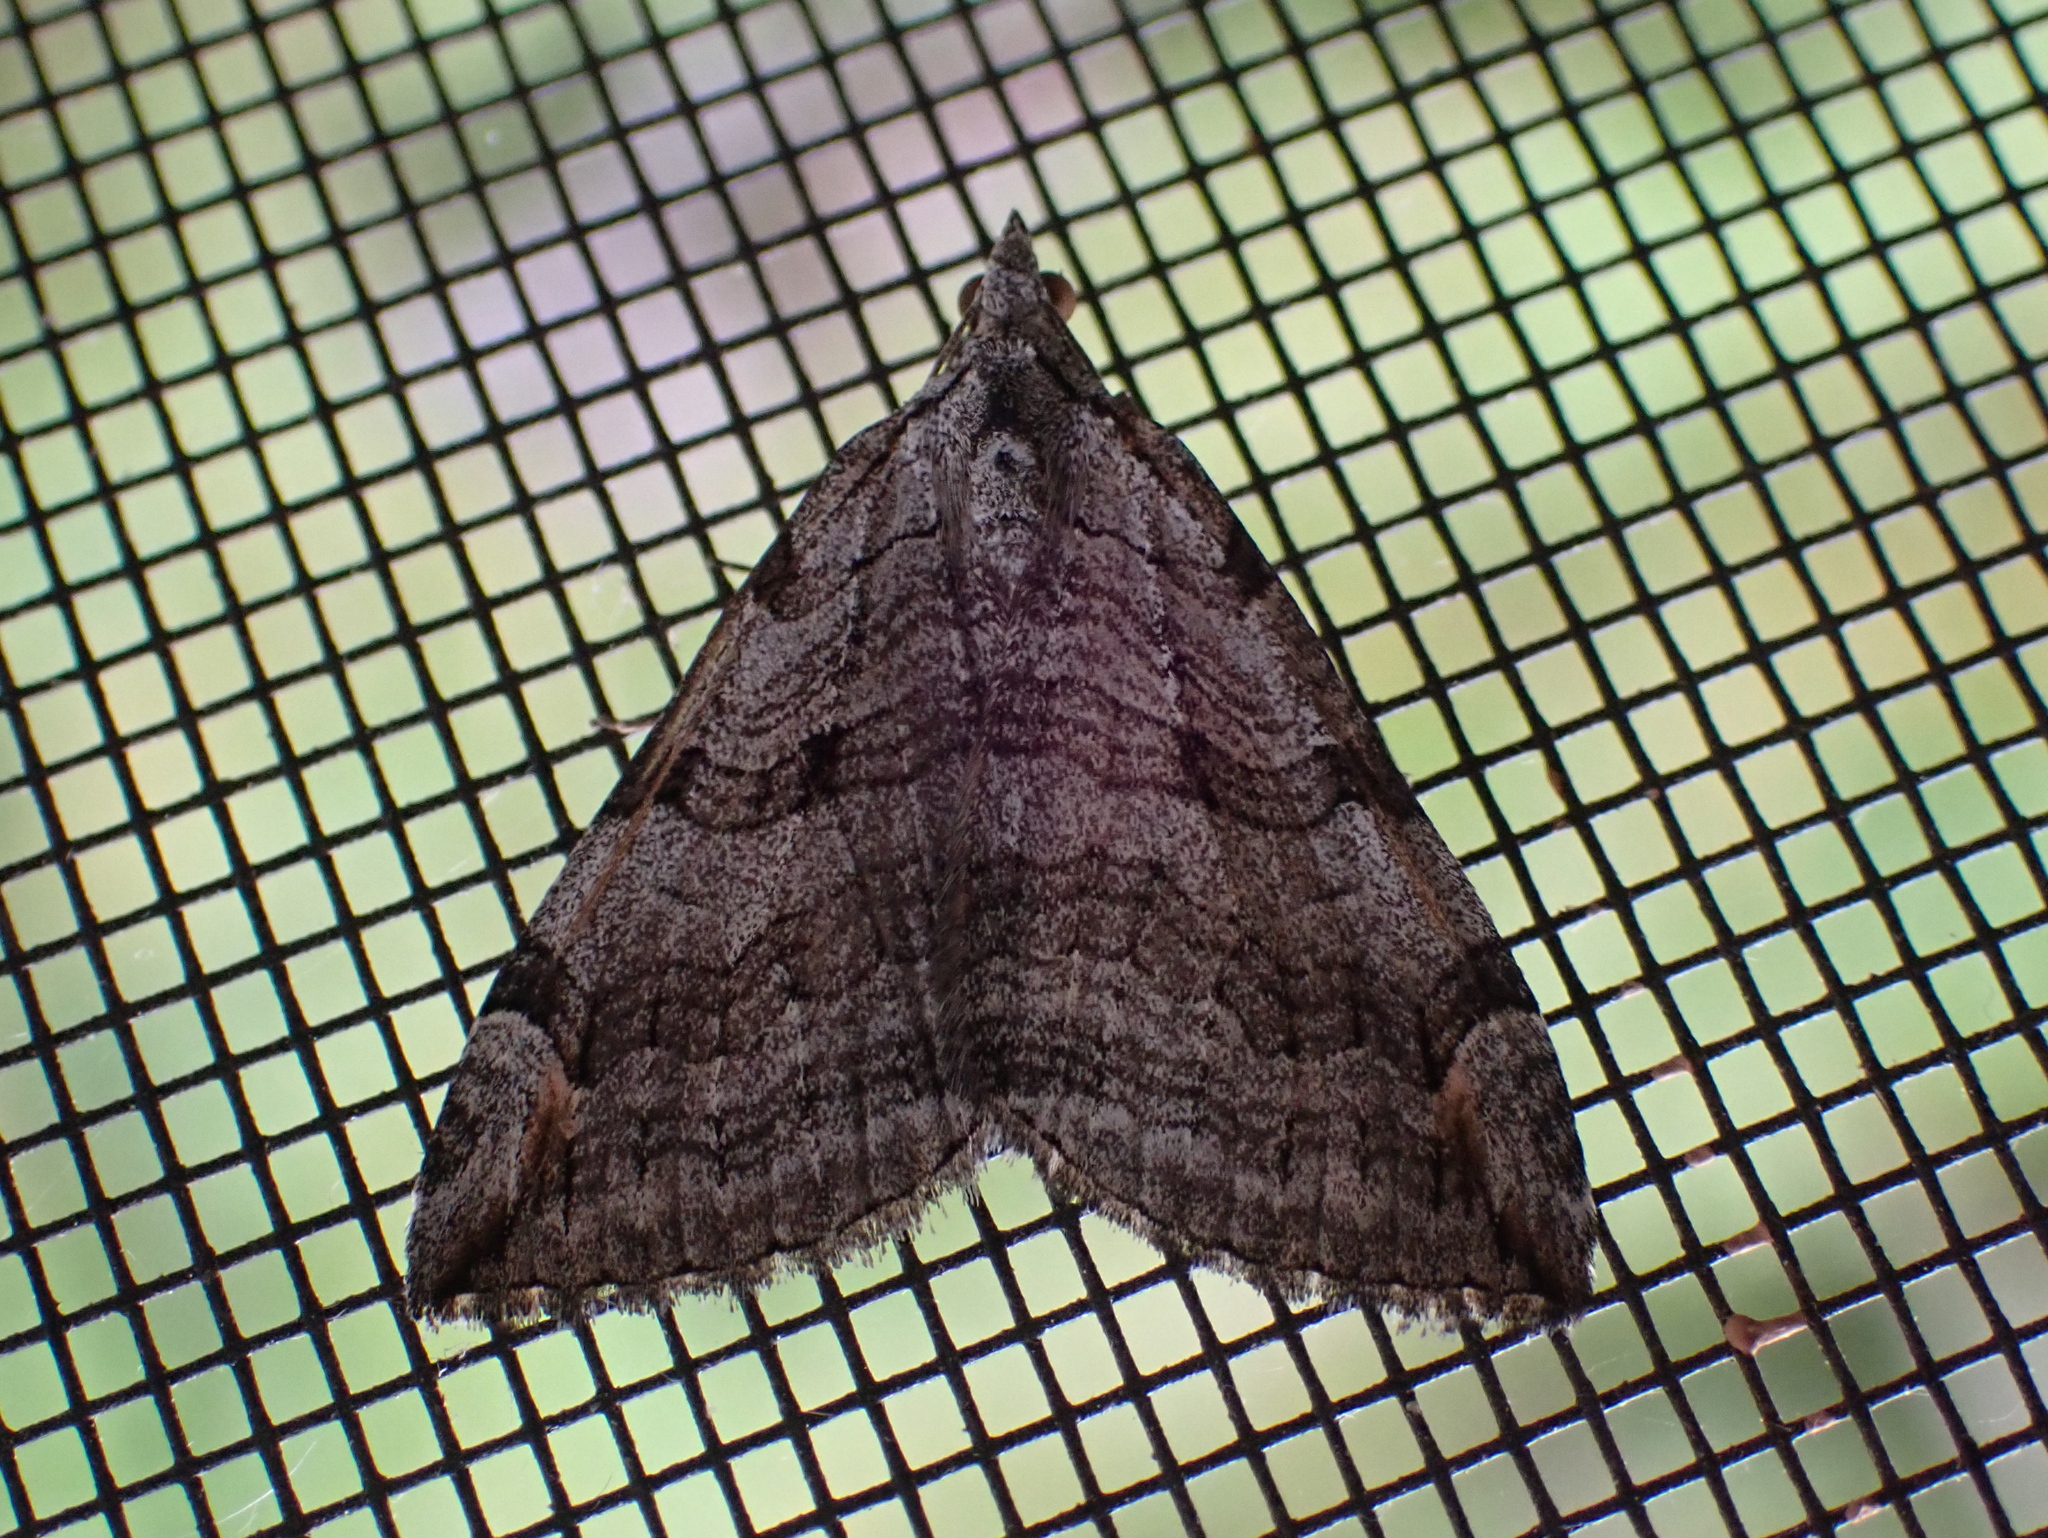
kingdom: Animalia
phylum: Arthropoda
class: Insecta
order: Lepidoptera
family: Geometridae
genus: Aplocera
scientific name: Aplocera plagiata
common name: Treble-bar
